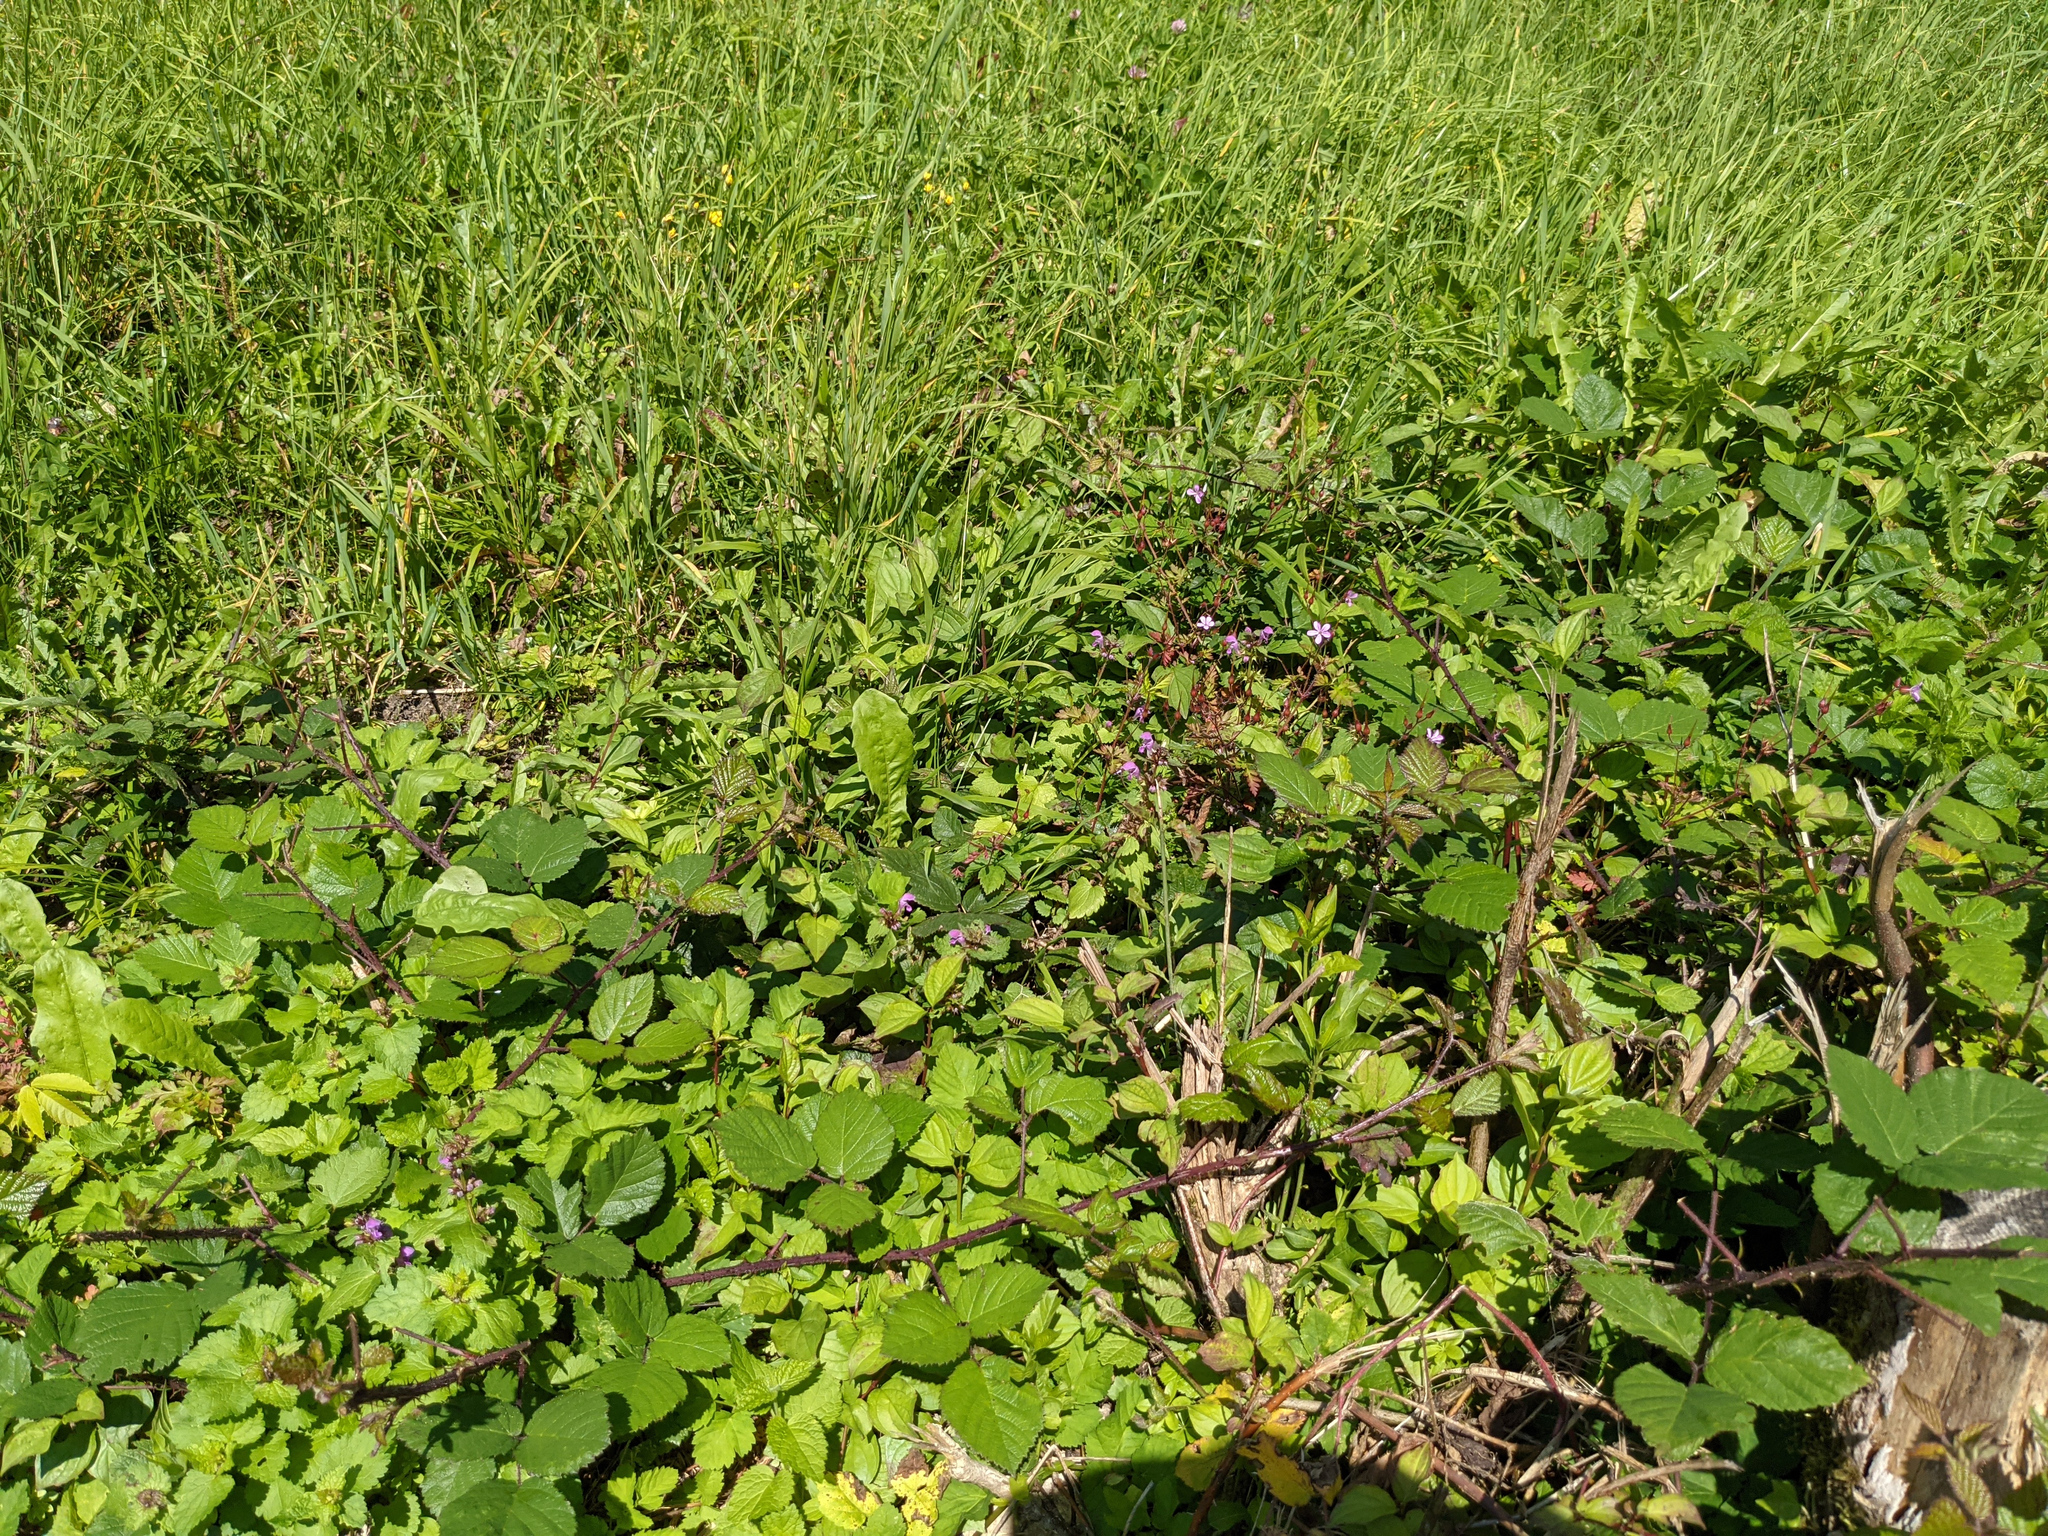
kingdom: Plantae
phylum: Tracheophyta
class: Magnoliopsida
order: Lamiales
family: Lamiaceae
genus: Lamium
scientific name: Lamium maculatum
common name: Spotted dead-nettle
